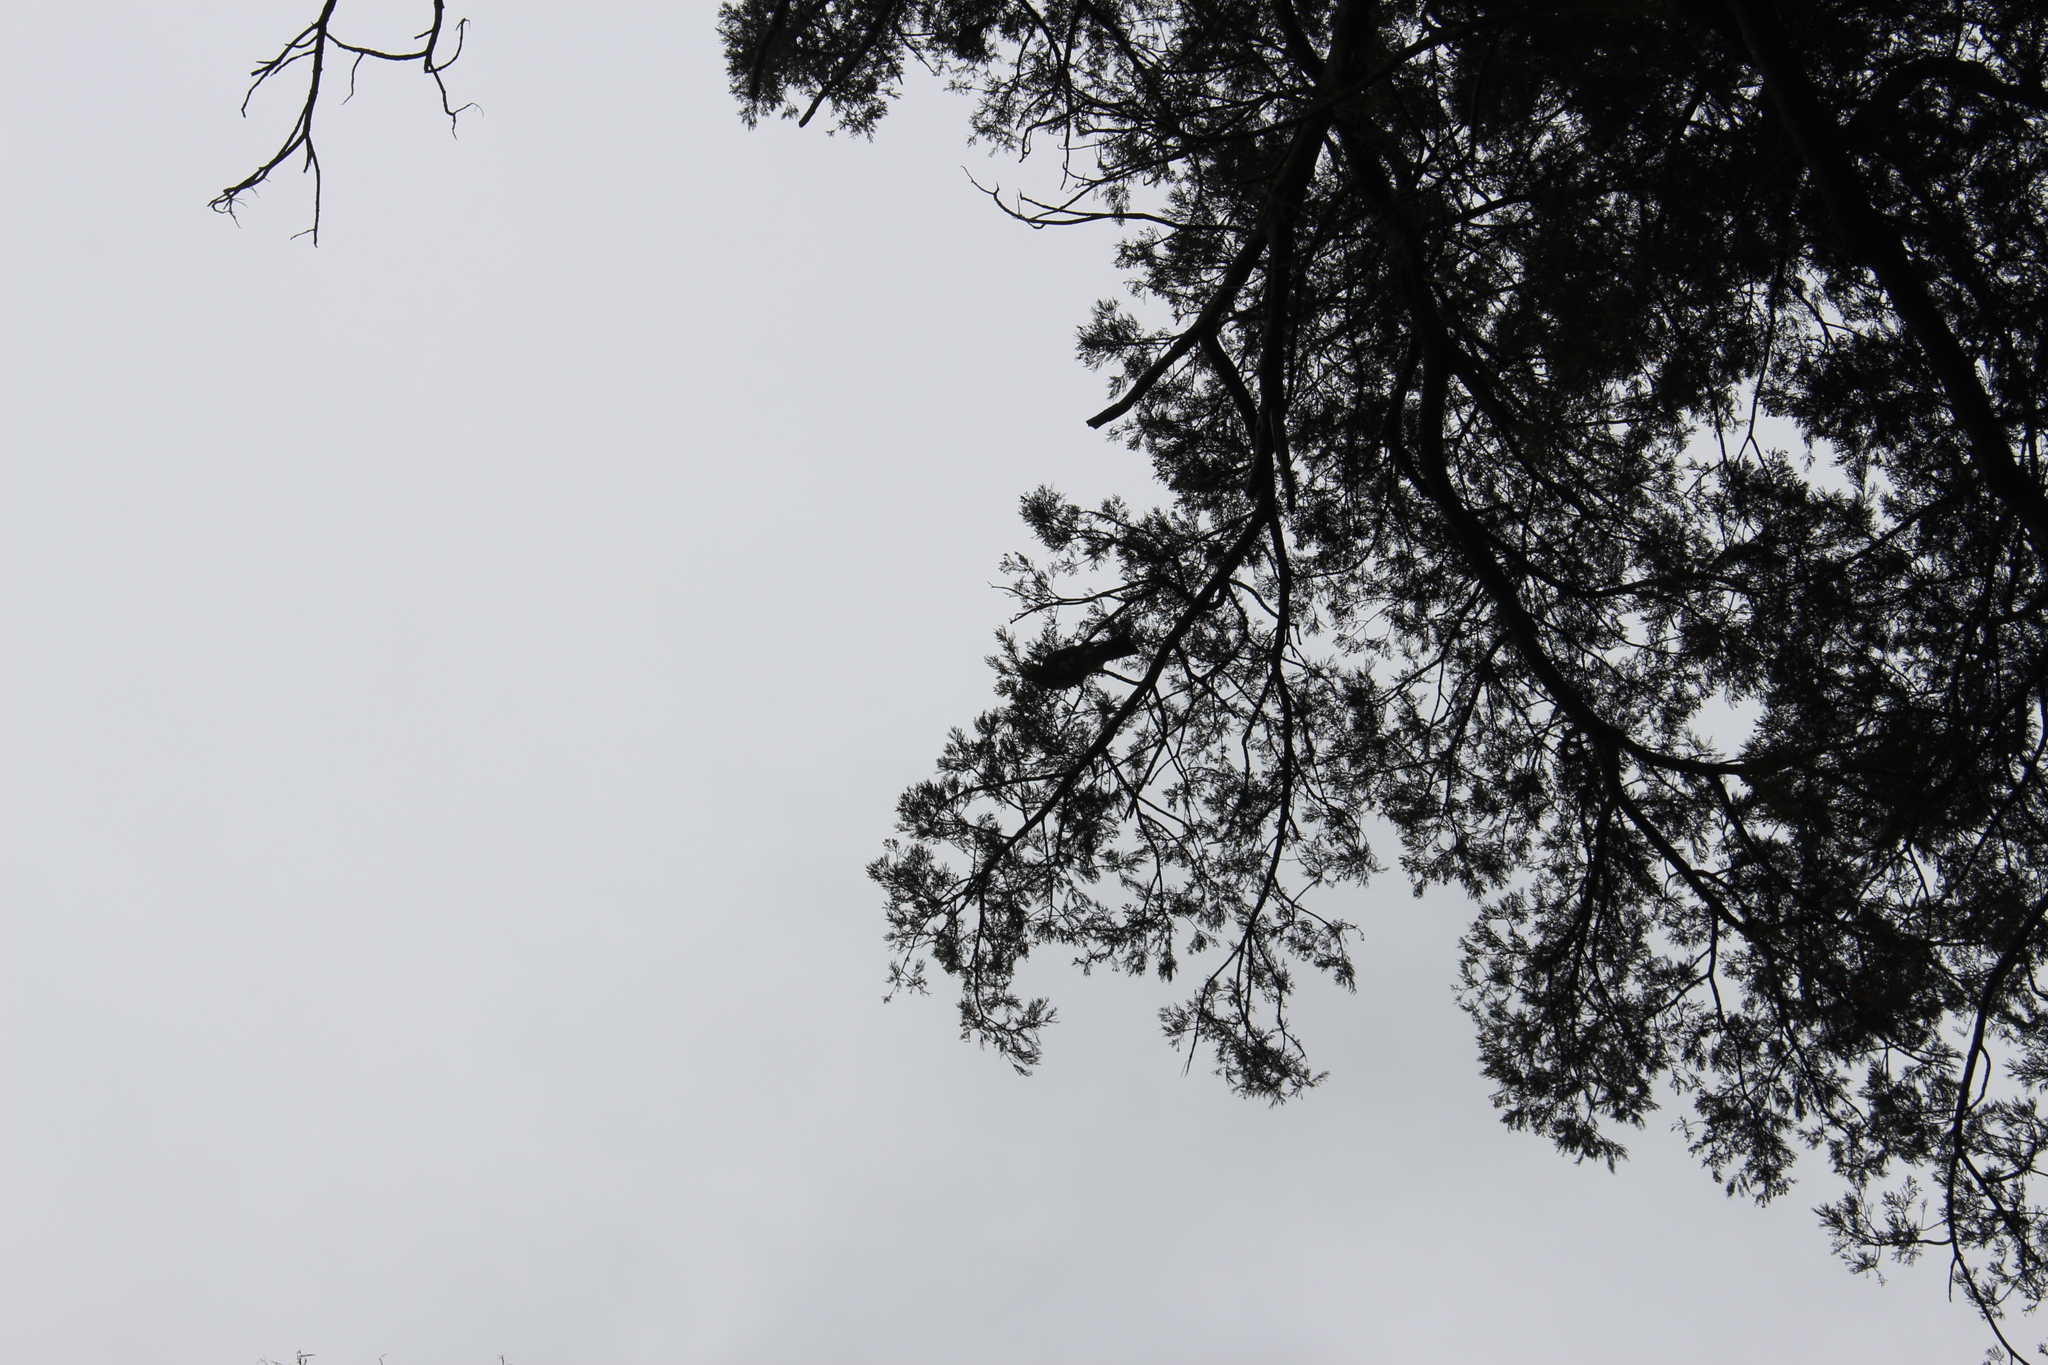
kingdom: Animalia
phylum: Chordata
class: Aves
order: Columbiformes
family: Columbidae
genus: Hemiphaga
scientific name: Hemiphaga novaeseelandiae
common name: New zealand pigeon
